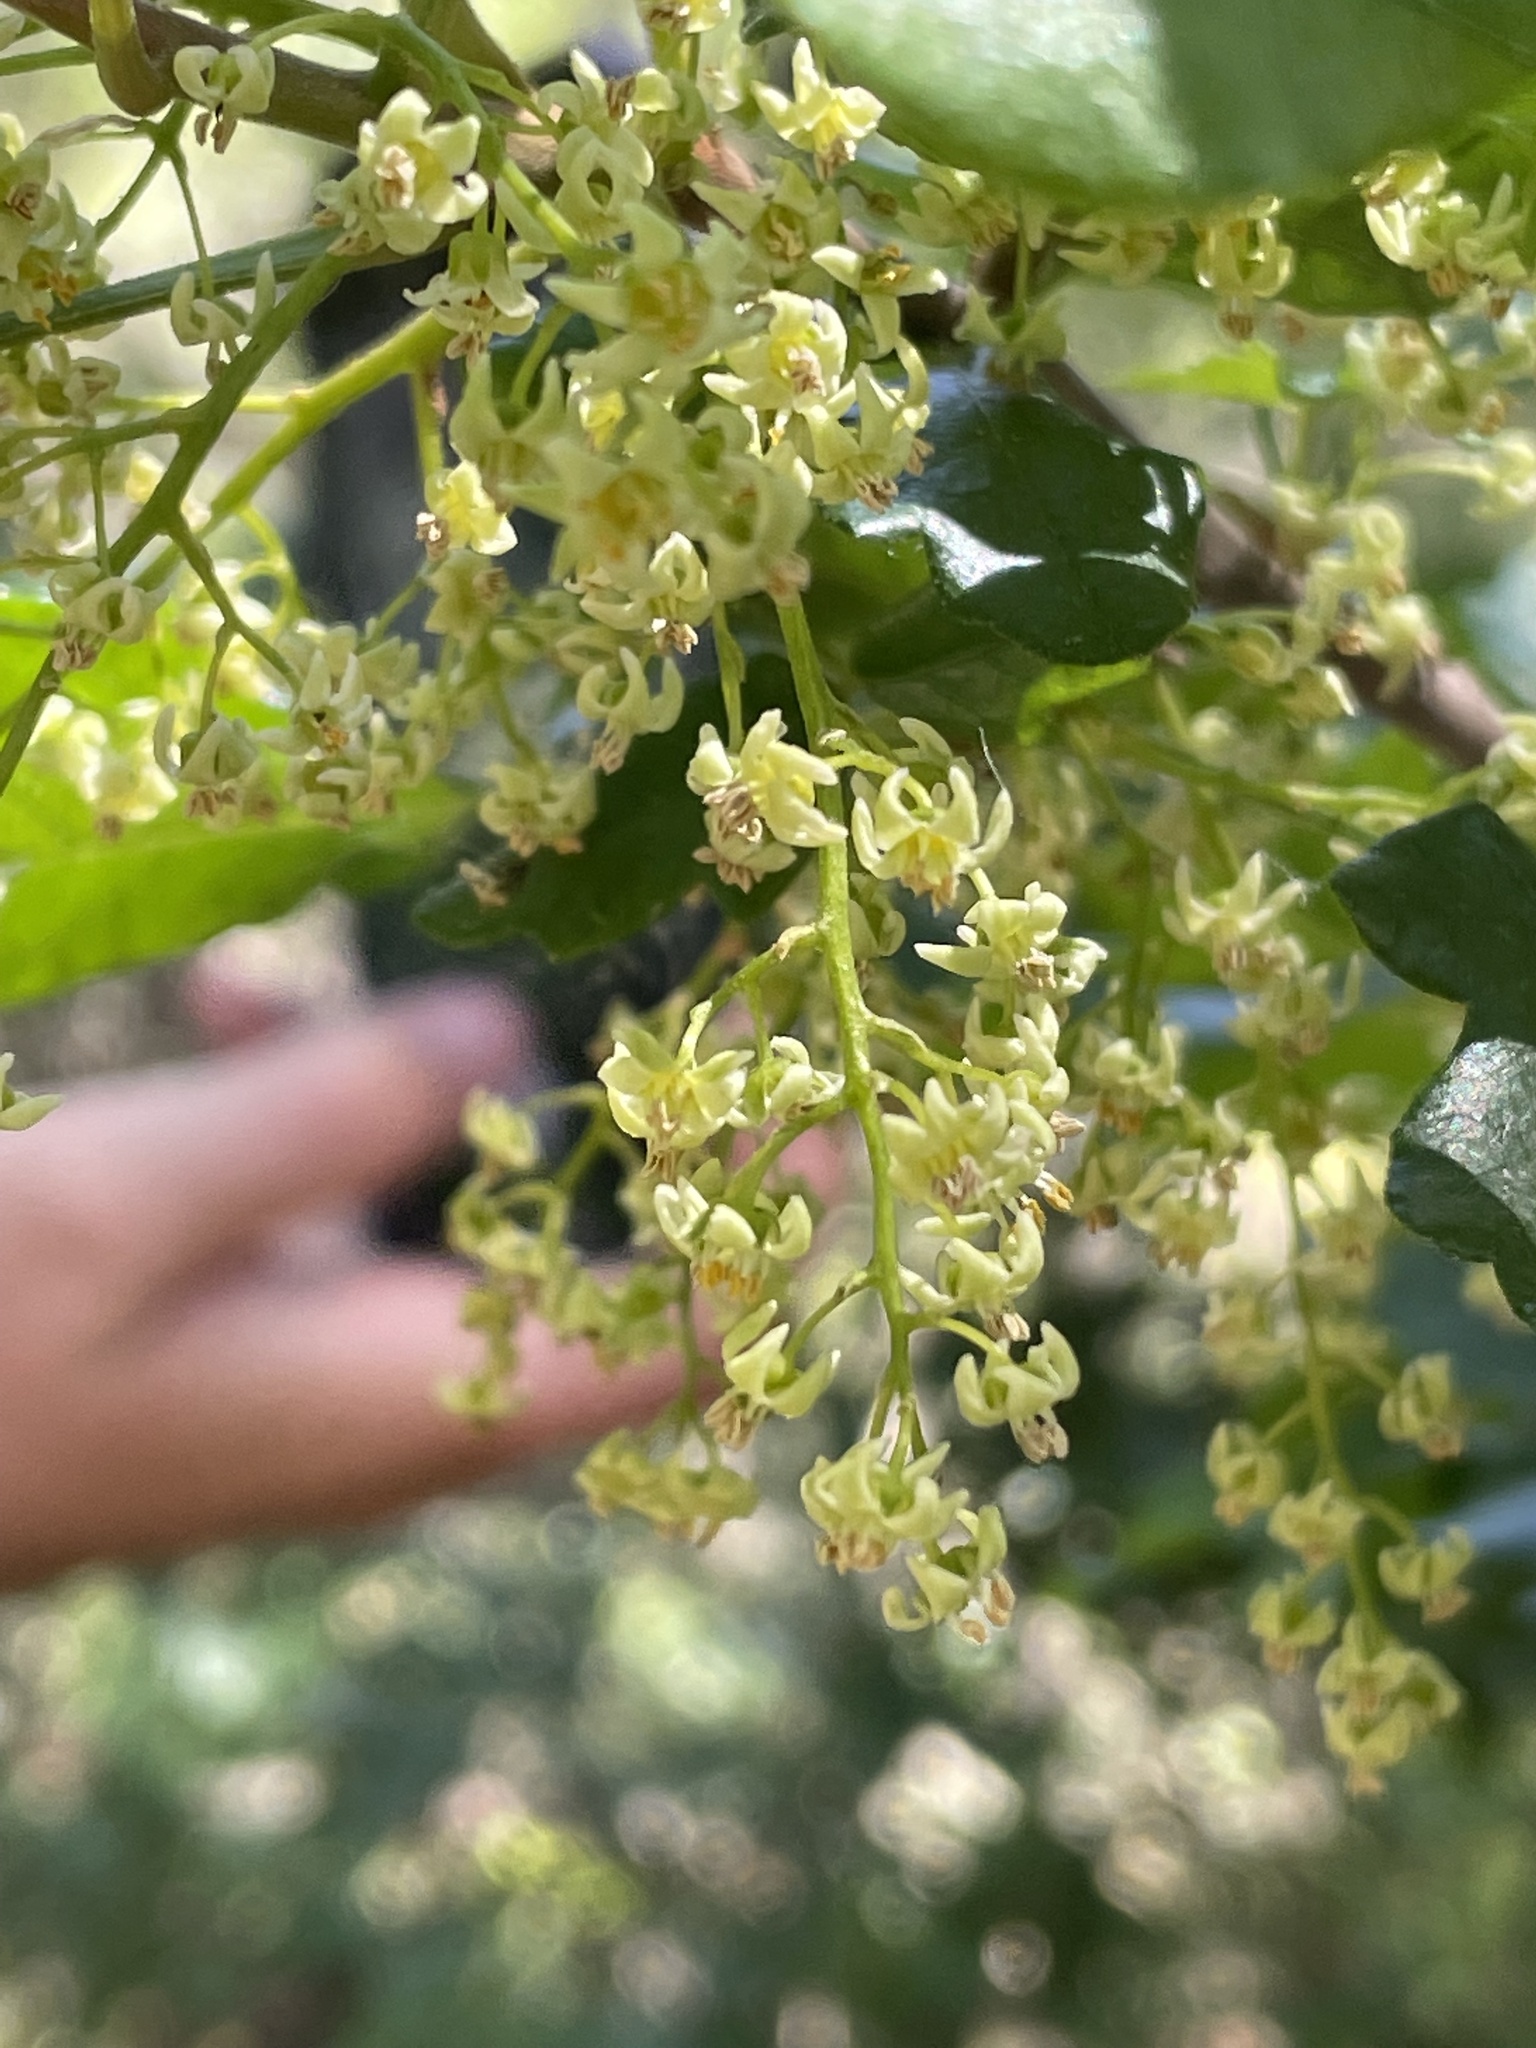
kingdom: Plantae
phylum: Tracheophyta
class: Magnoliopsida
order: Sapindales
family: Anacardiaceae
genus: Toxicodendron
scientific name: Toxicodendron diversilobum
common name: Pacific poison-oak
